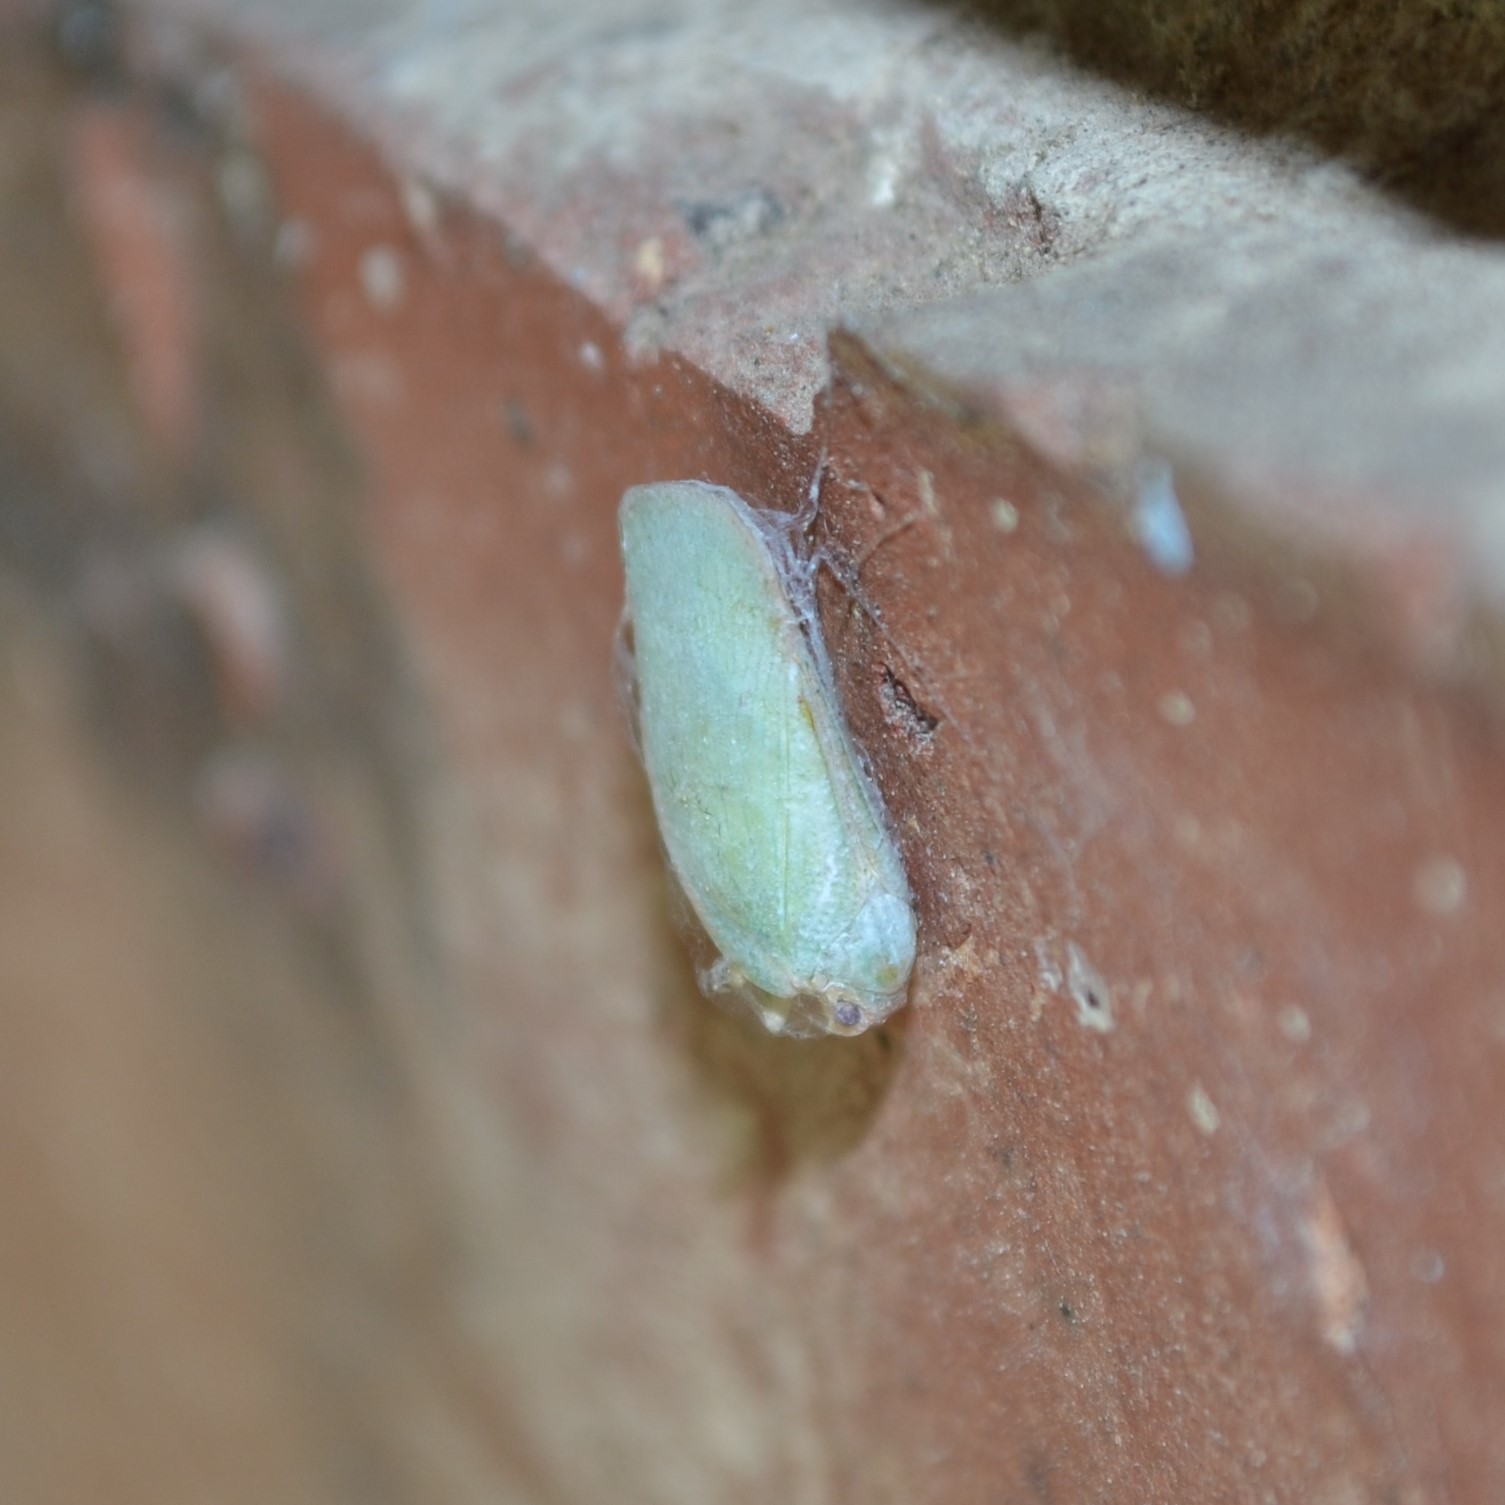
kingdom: Animalia
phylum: Arthropoda
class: Insecta
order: Hemiptera
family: Flatidae
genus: Ormenoides
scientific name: Ormenoides venusta
